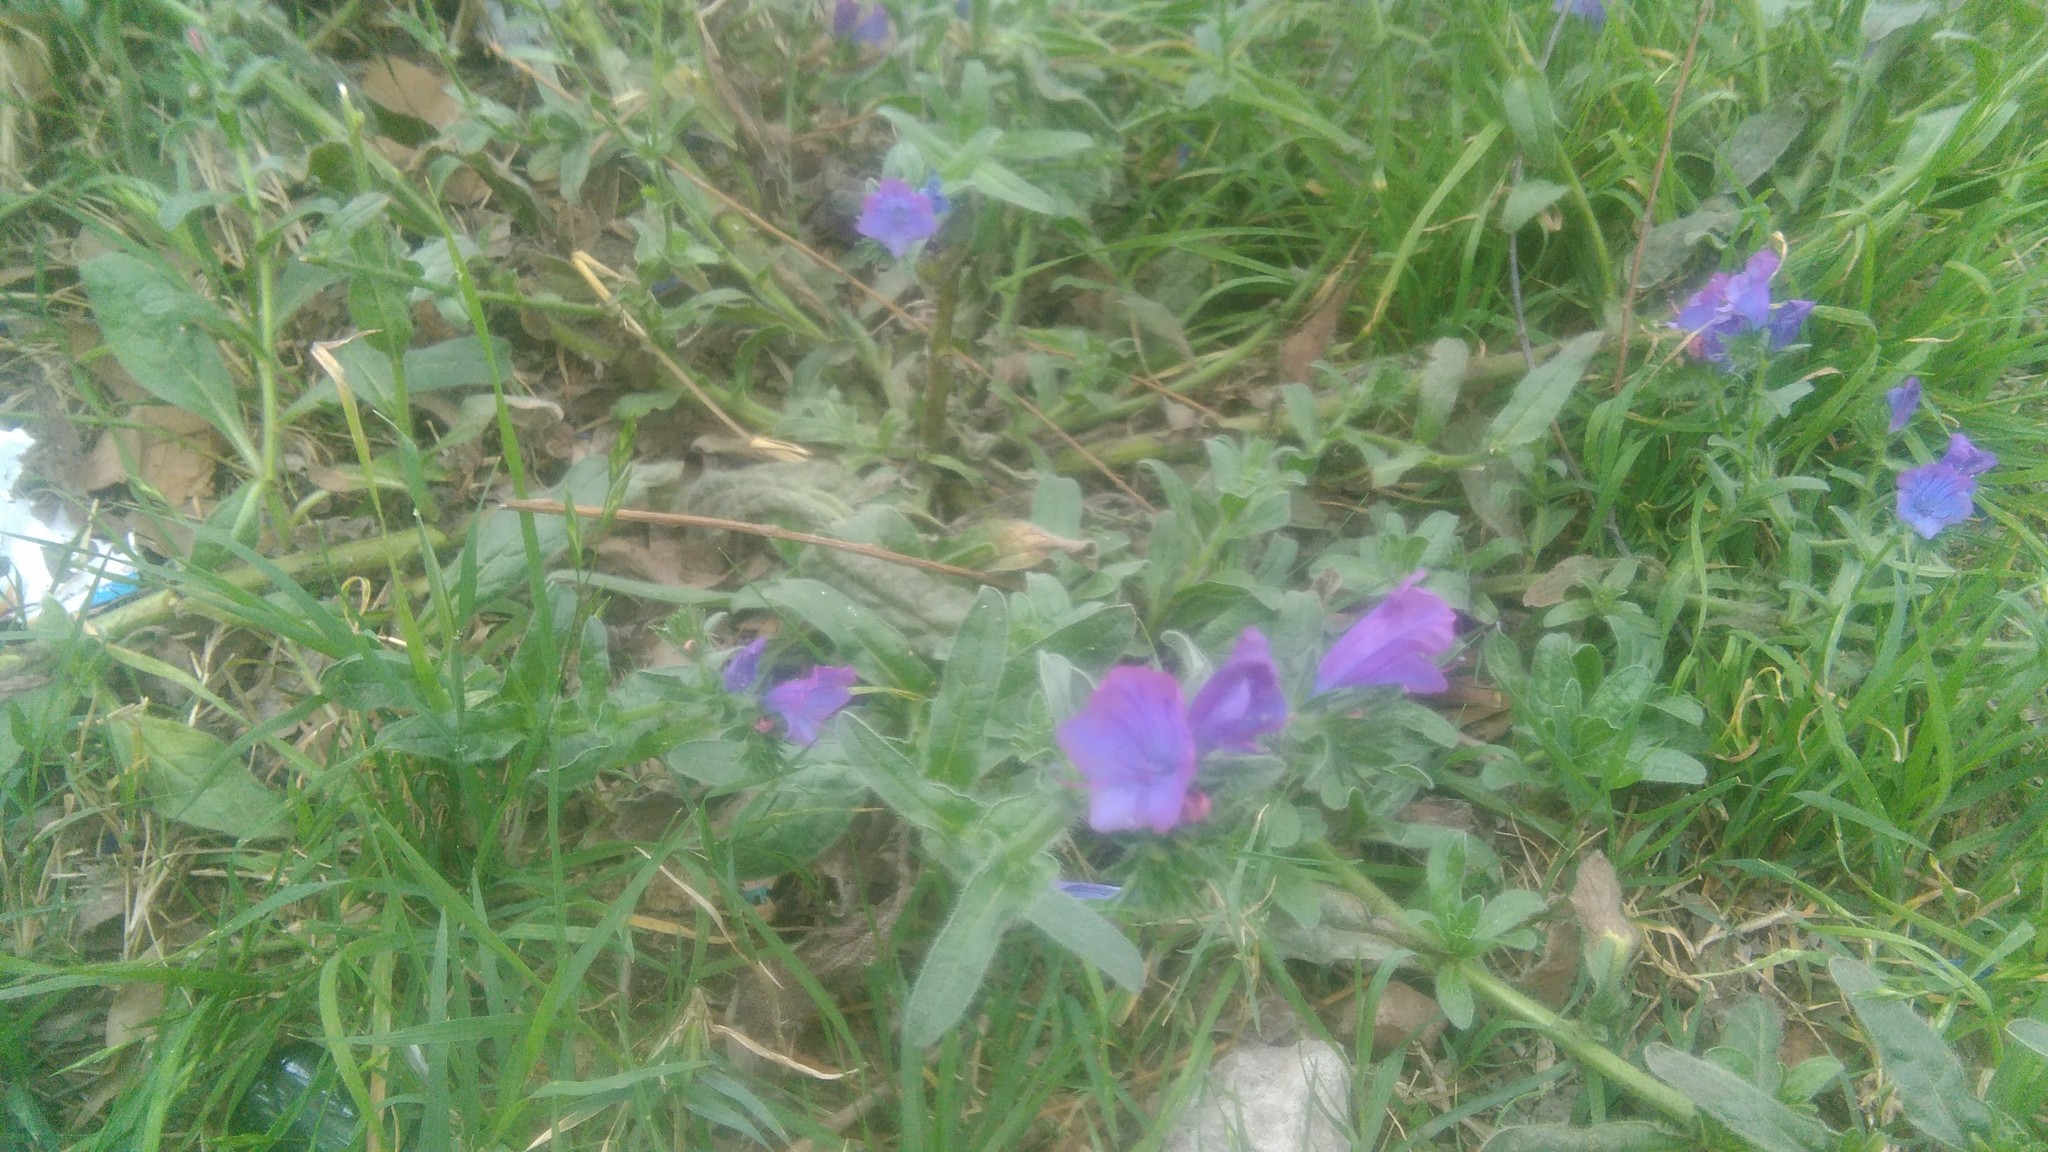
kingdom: Plantae
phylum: Tracheophyta
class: Magnoliopsida
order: Boraginales
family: Boraginaceae
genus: Echium
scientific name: Echium plantagineum
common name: Purple viper's-bugloss
